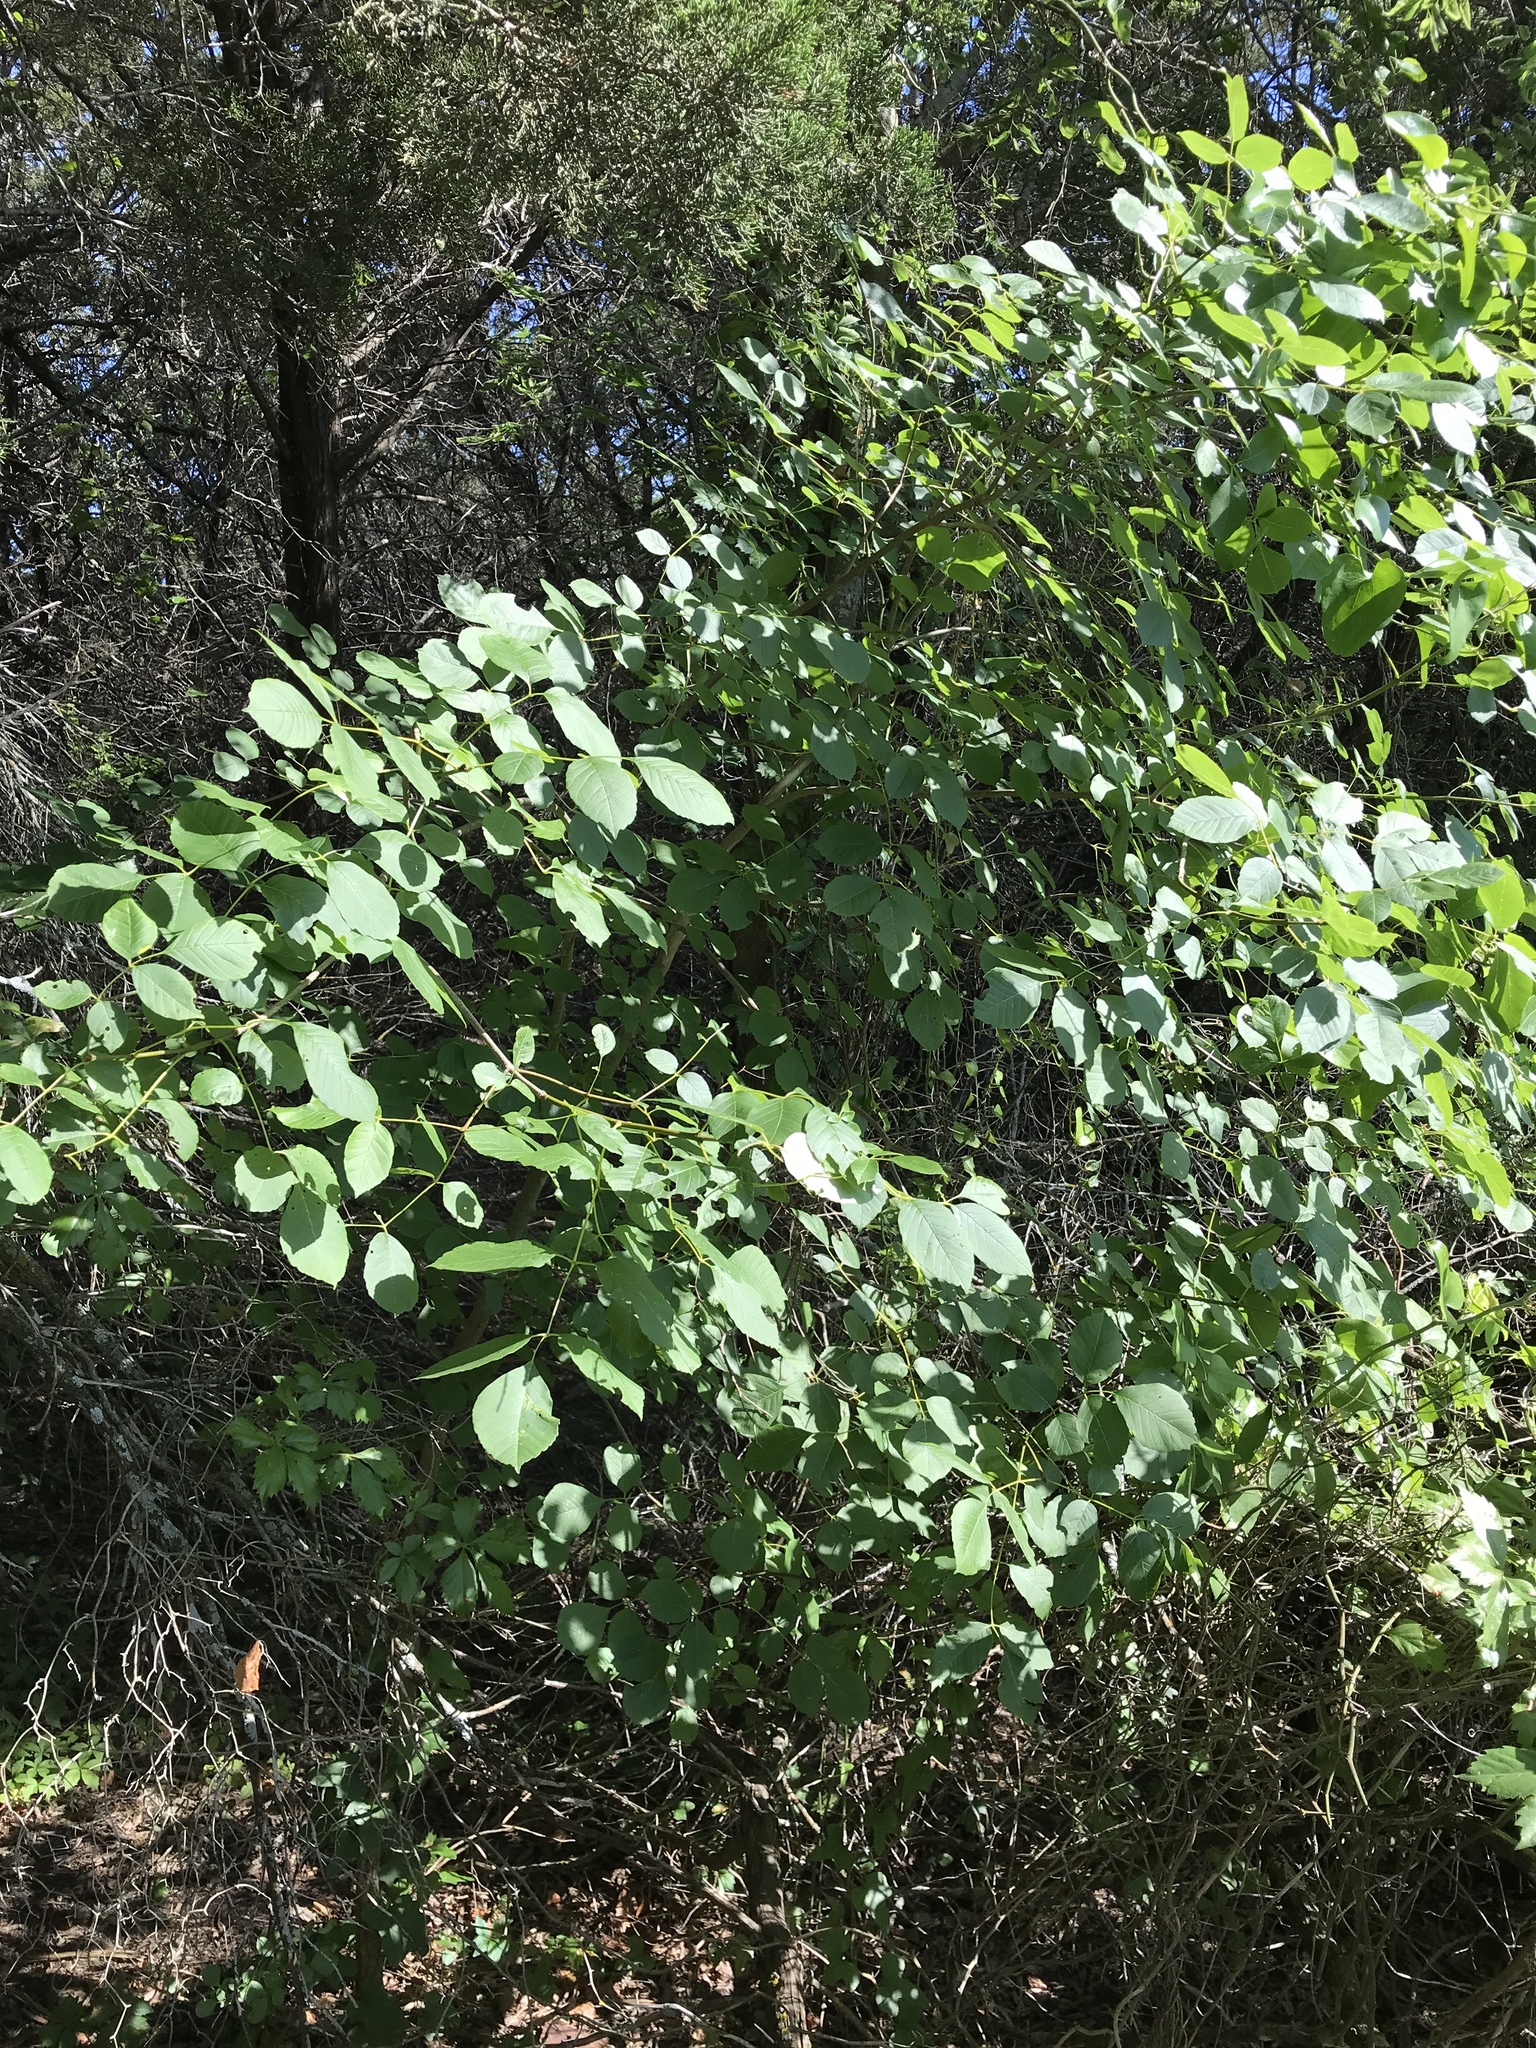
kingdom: Plantae
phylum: Tracheophyta
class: Magnoliopsida
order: Lamiales
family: Oleaceae
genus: Fraxinus
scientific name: Fraxinus albicans
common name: Texas ash
